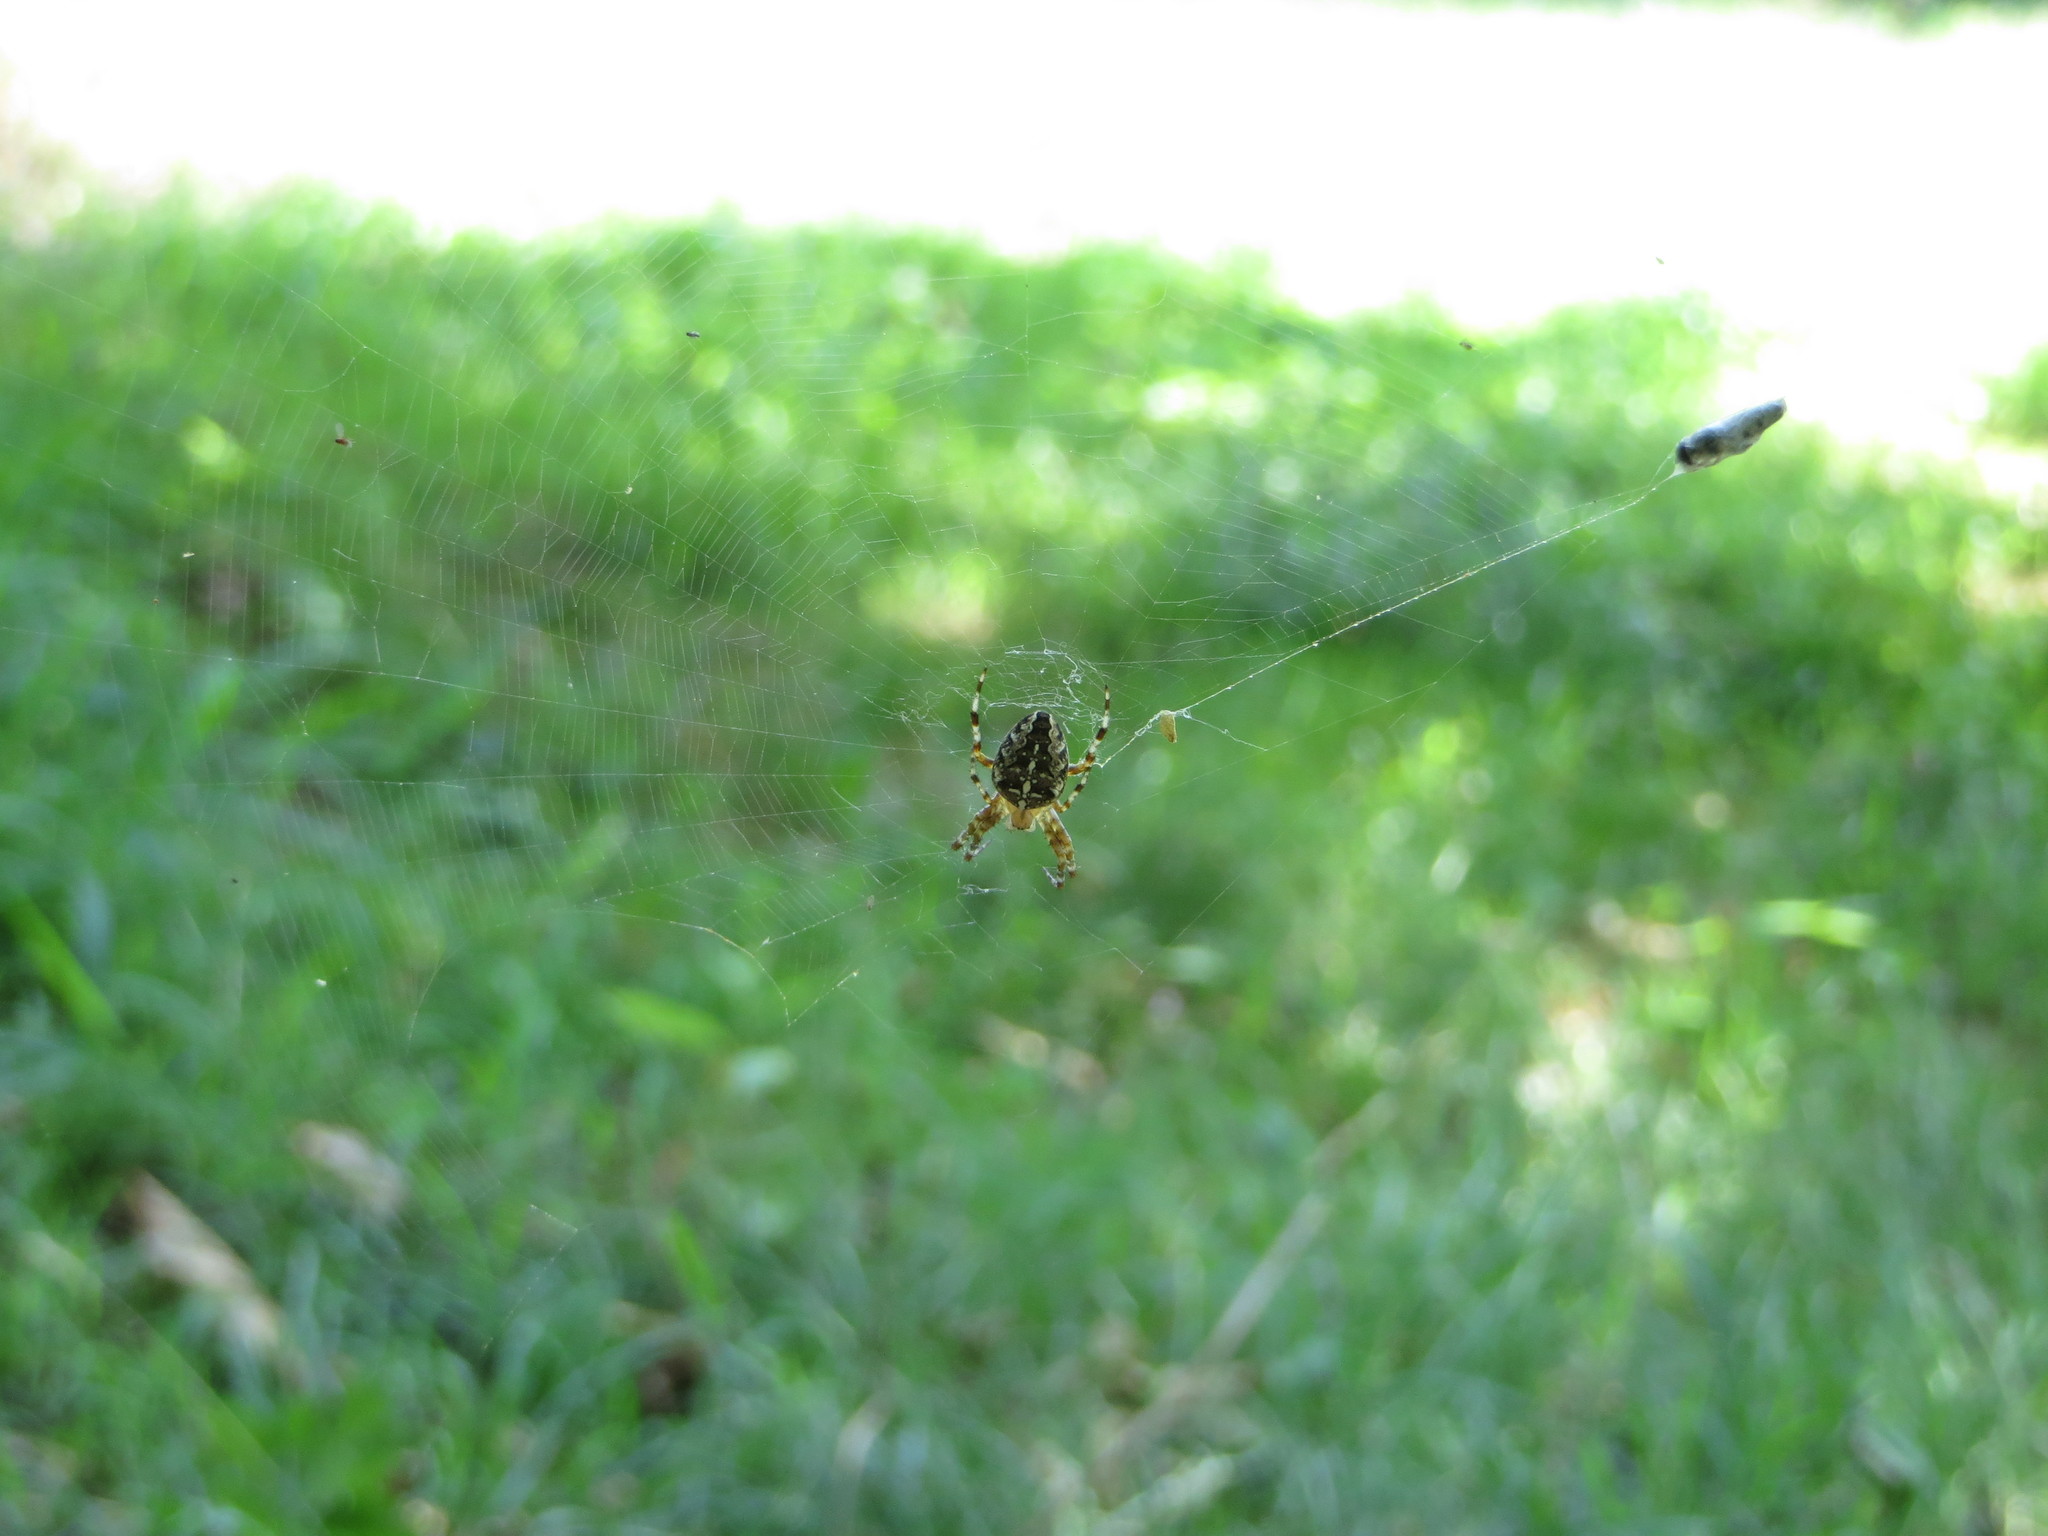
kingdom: Animalia
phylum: Arthropoda
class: Arachnida
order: Araneae
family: Araneidae
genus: Araneus
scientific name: Araneus diadematus
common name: Cross orbweaver
